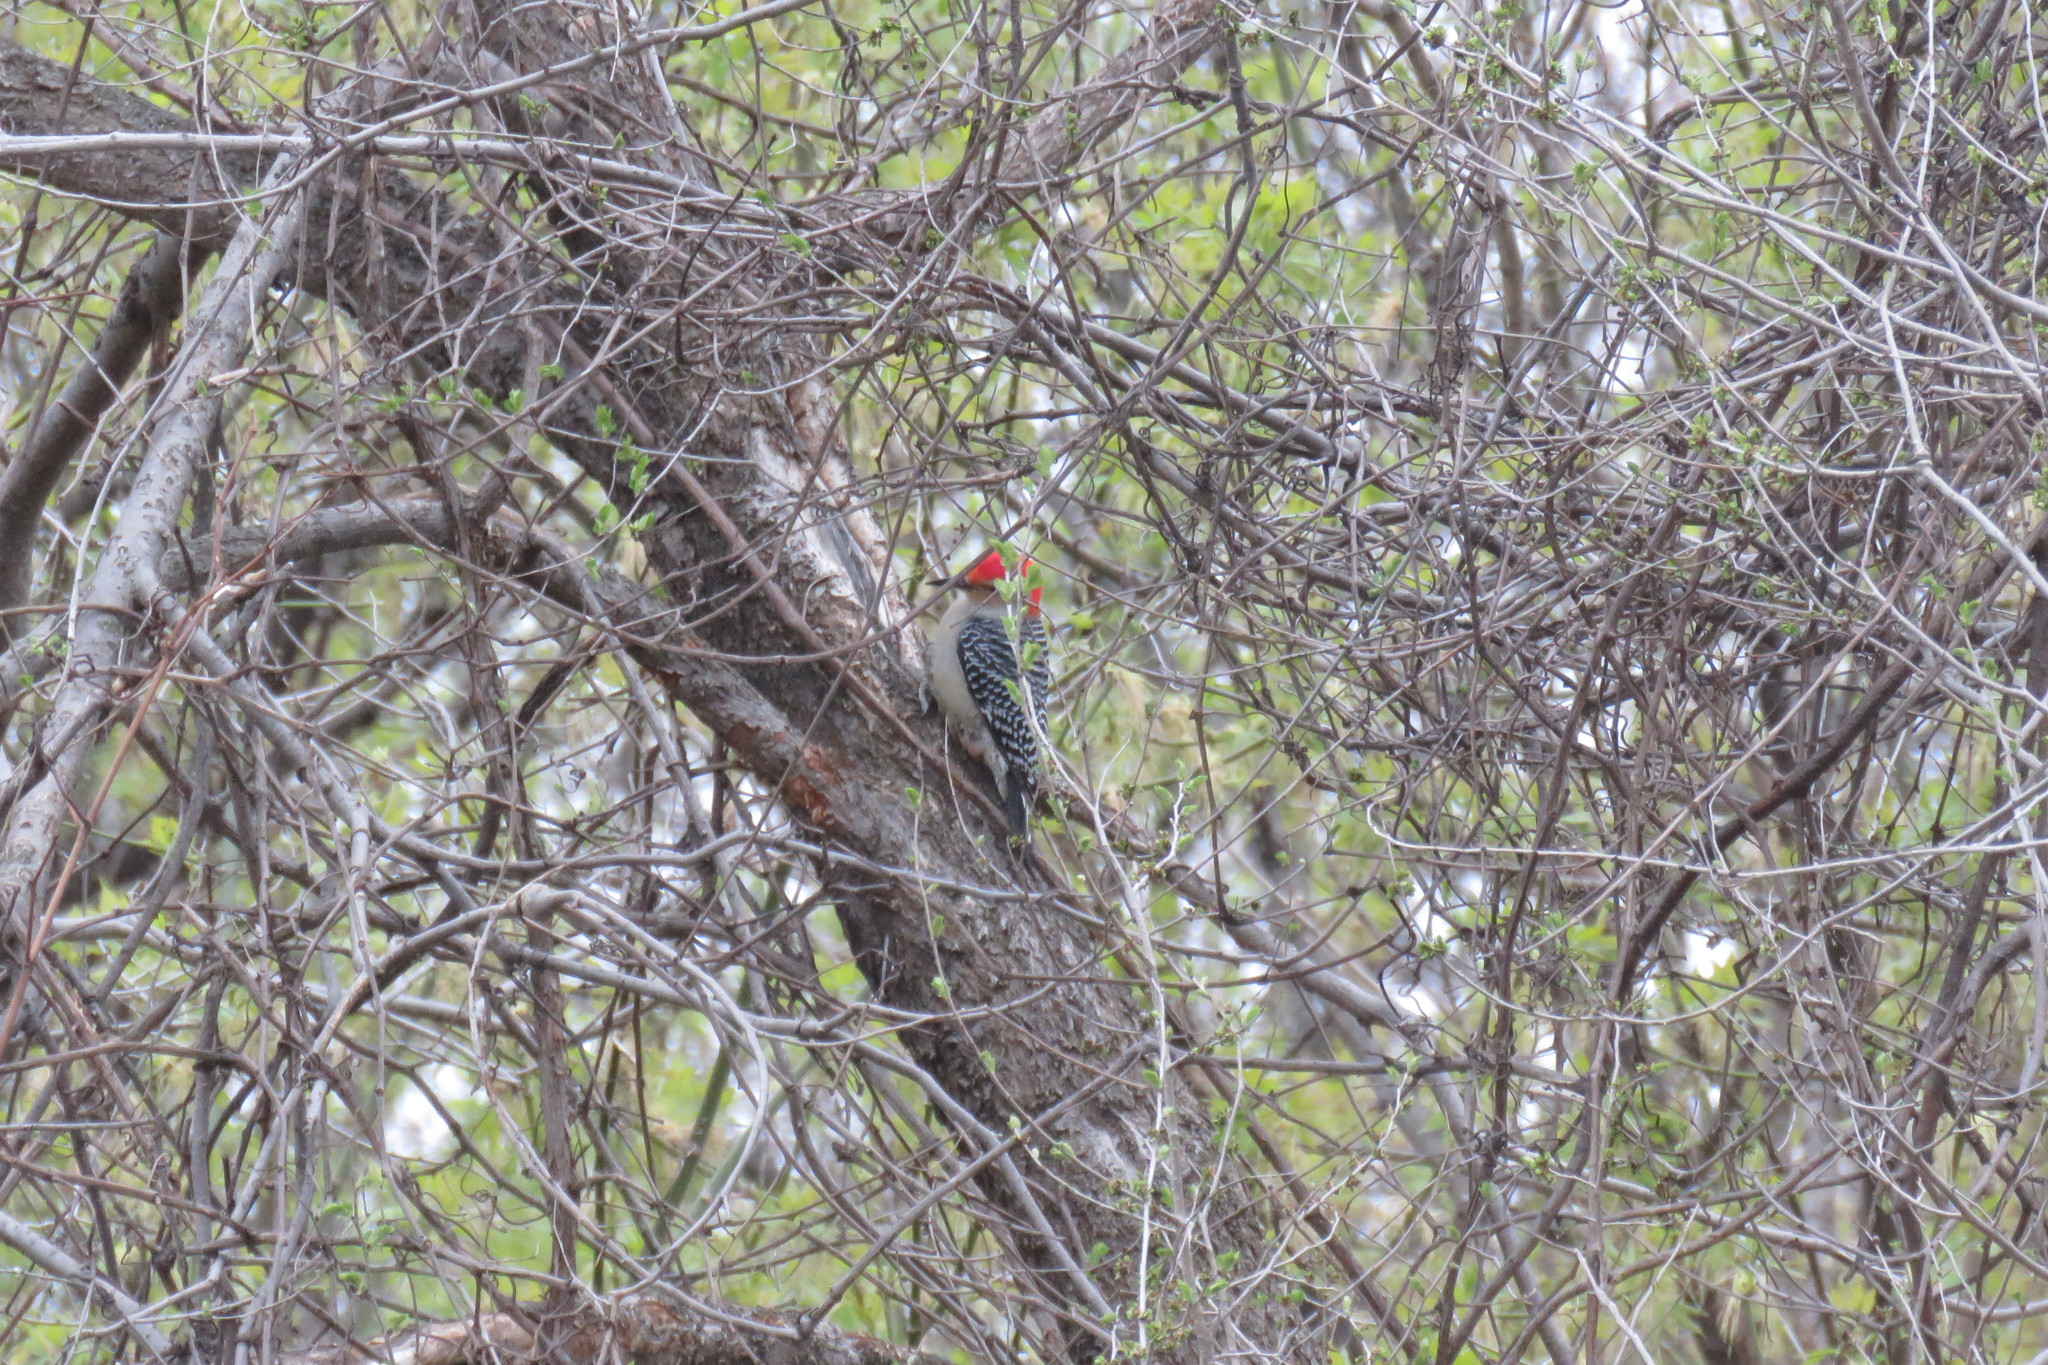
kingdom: Animalia
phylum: Chordata
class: Aves
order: Piciformes
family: Picidae
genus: Melanerpes
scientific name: Melanerpes carolinus
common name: Red-bellied woodpecker
